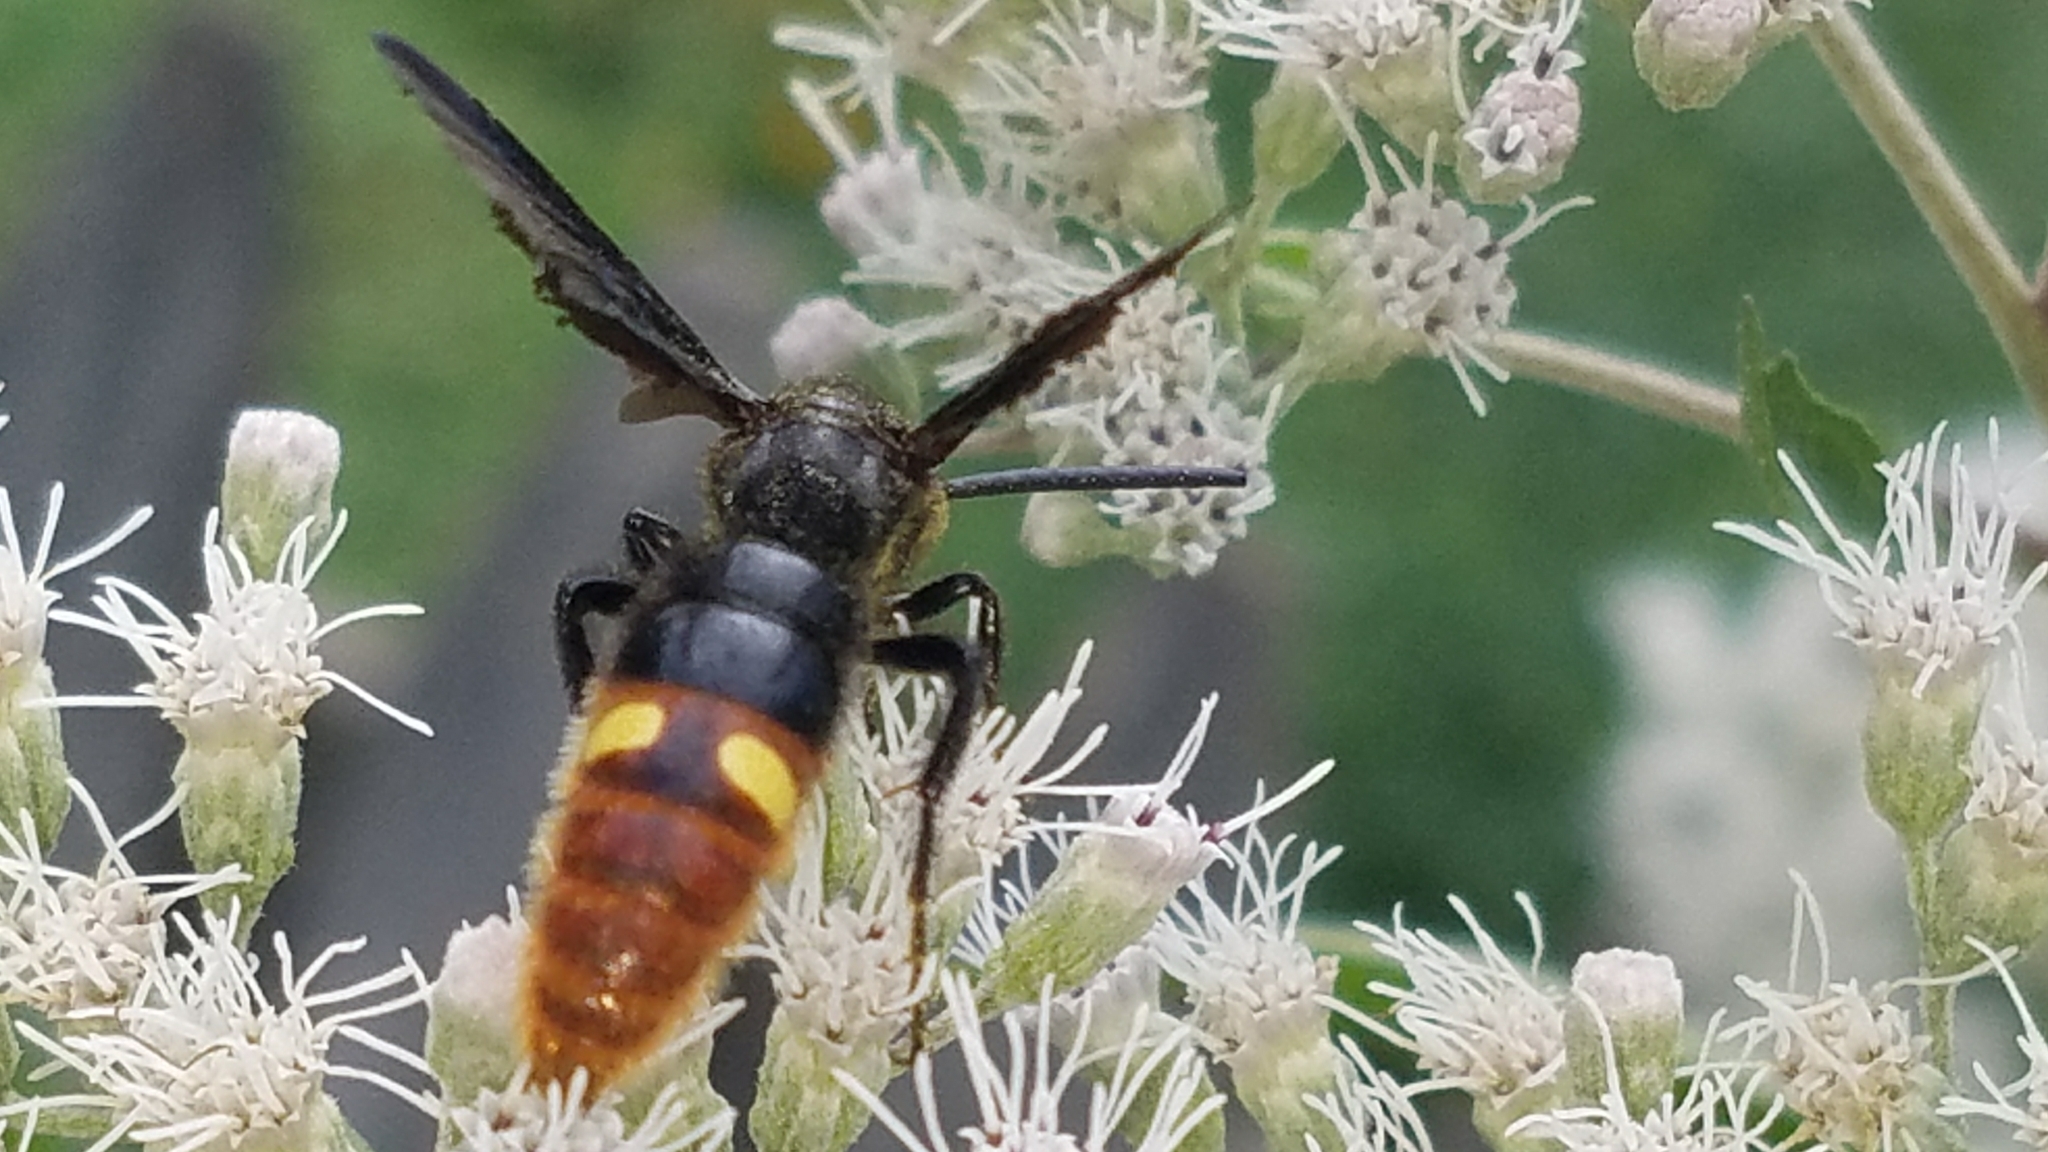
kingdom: Animalia
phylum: Arthropoda
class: Insecta
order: Hymenoptera
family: Scoliidae
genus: Scolia
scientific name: Scolia dubia
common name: Blue-winged scoliid wasp
